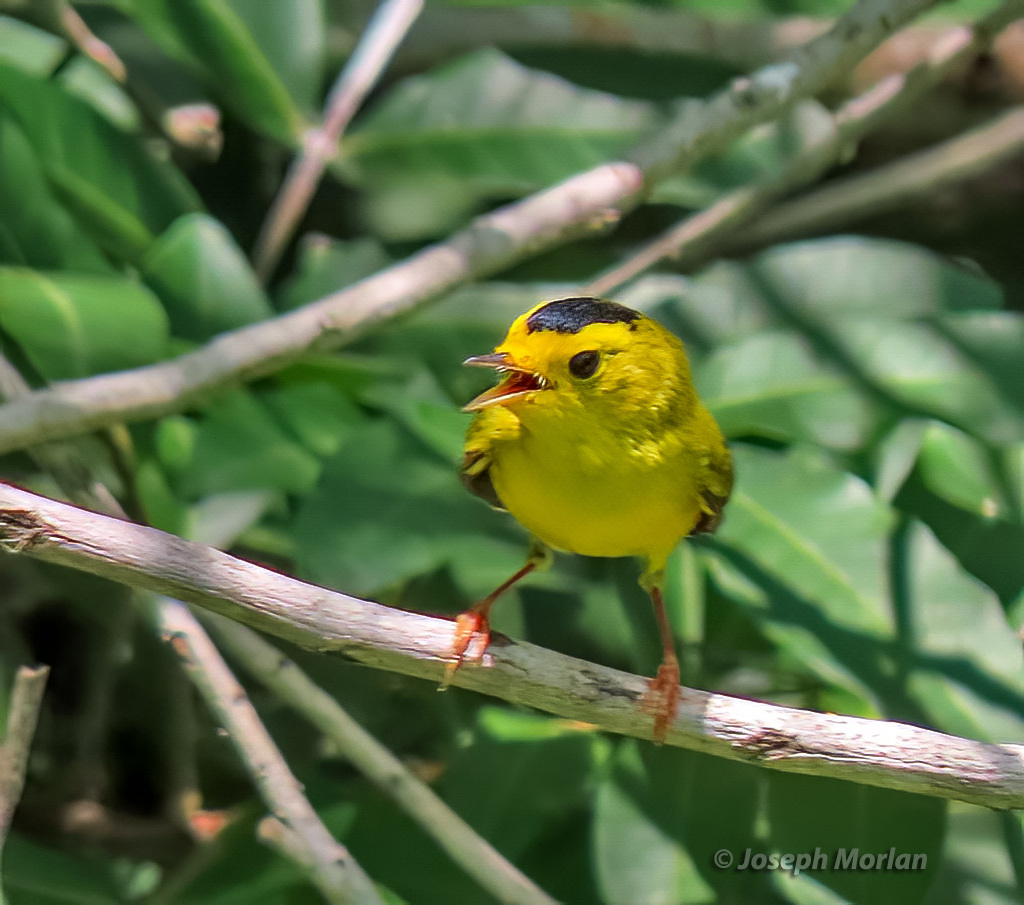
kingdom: Animalia
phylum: Chordata
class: Aves
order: Passeriformes
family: Parulidae
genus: Cardellina
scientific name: Cardellina pusilla
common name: Wilson's warbler
